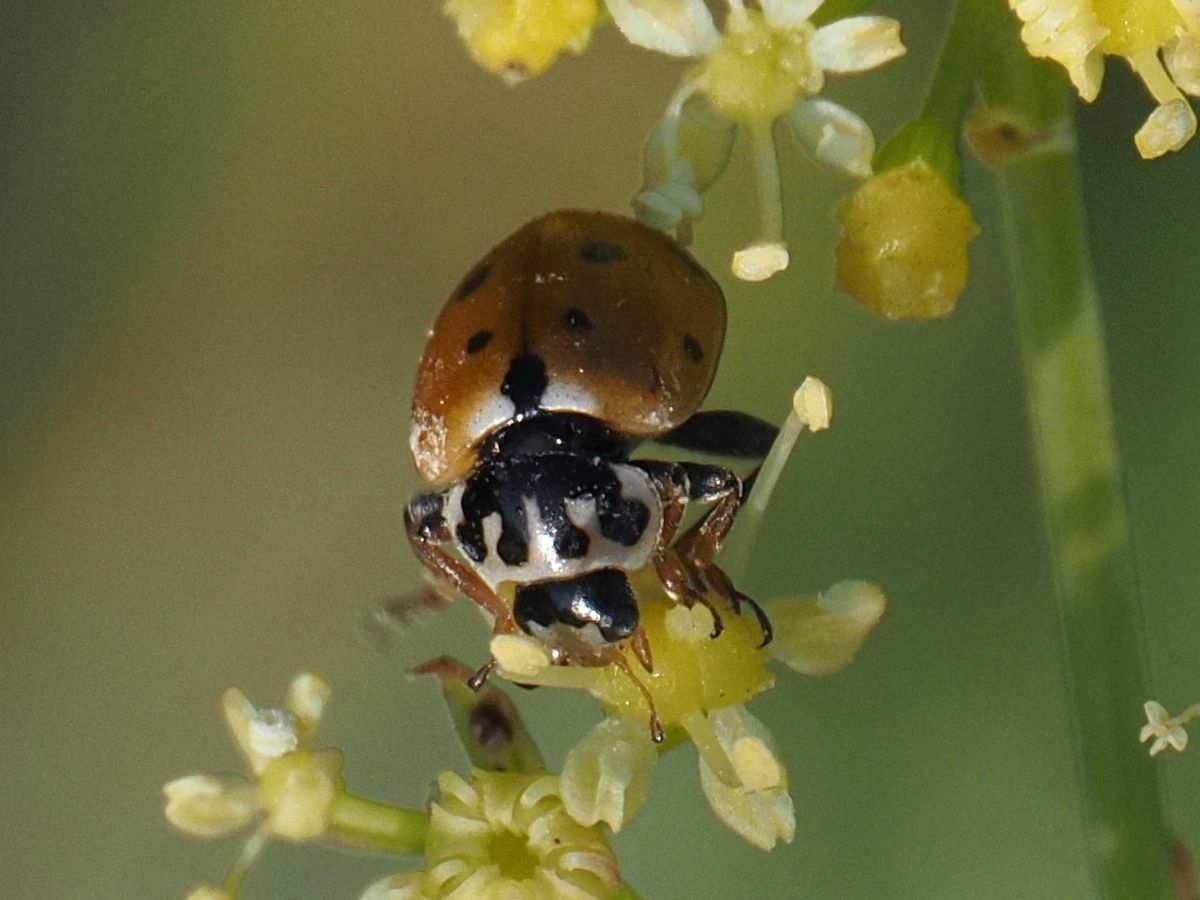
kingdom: Animalia
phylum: Arthropoda
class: Insecta
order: Coleoptera
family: Coccinellidae
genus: Hippodamia
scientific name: Hippodamia variegata
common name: Ladybird beetle
